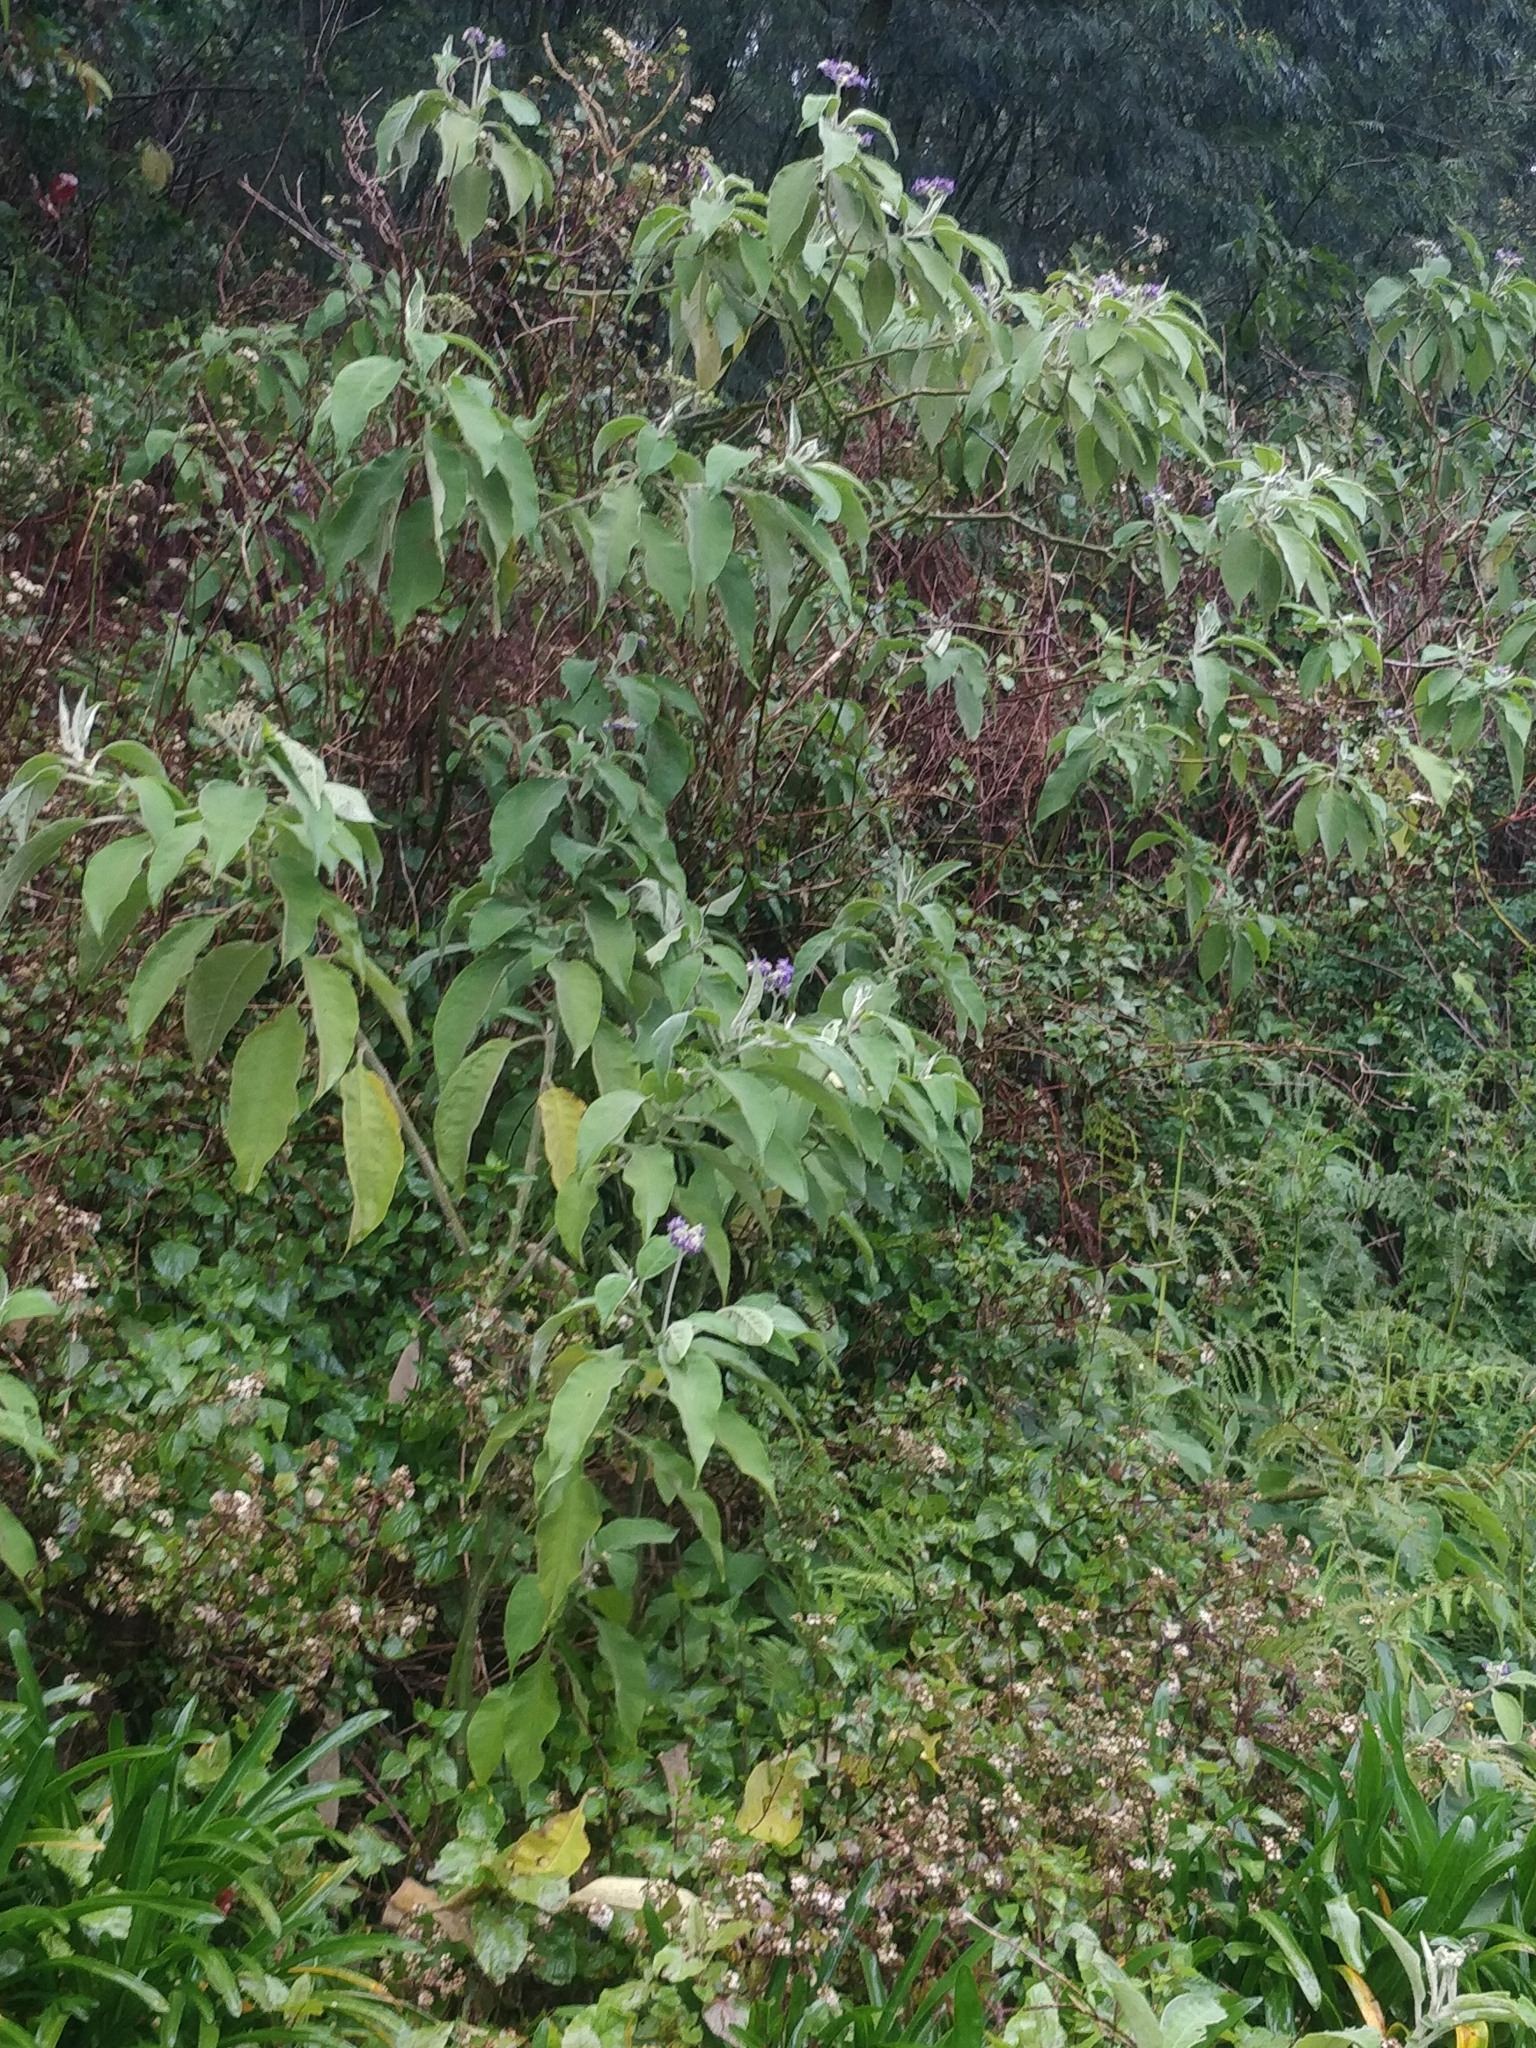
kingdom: Plantae
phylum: Tracheophyta
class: Magnoliopsida
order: Solanales
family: Solanaceae
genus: Solanum
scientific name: Solanum mauritianum
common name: Earleaf nightshade
